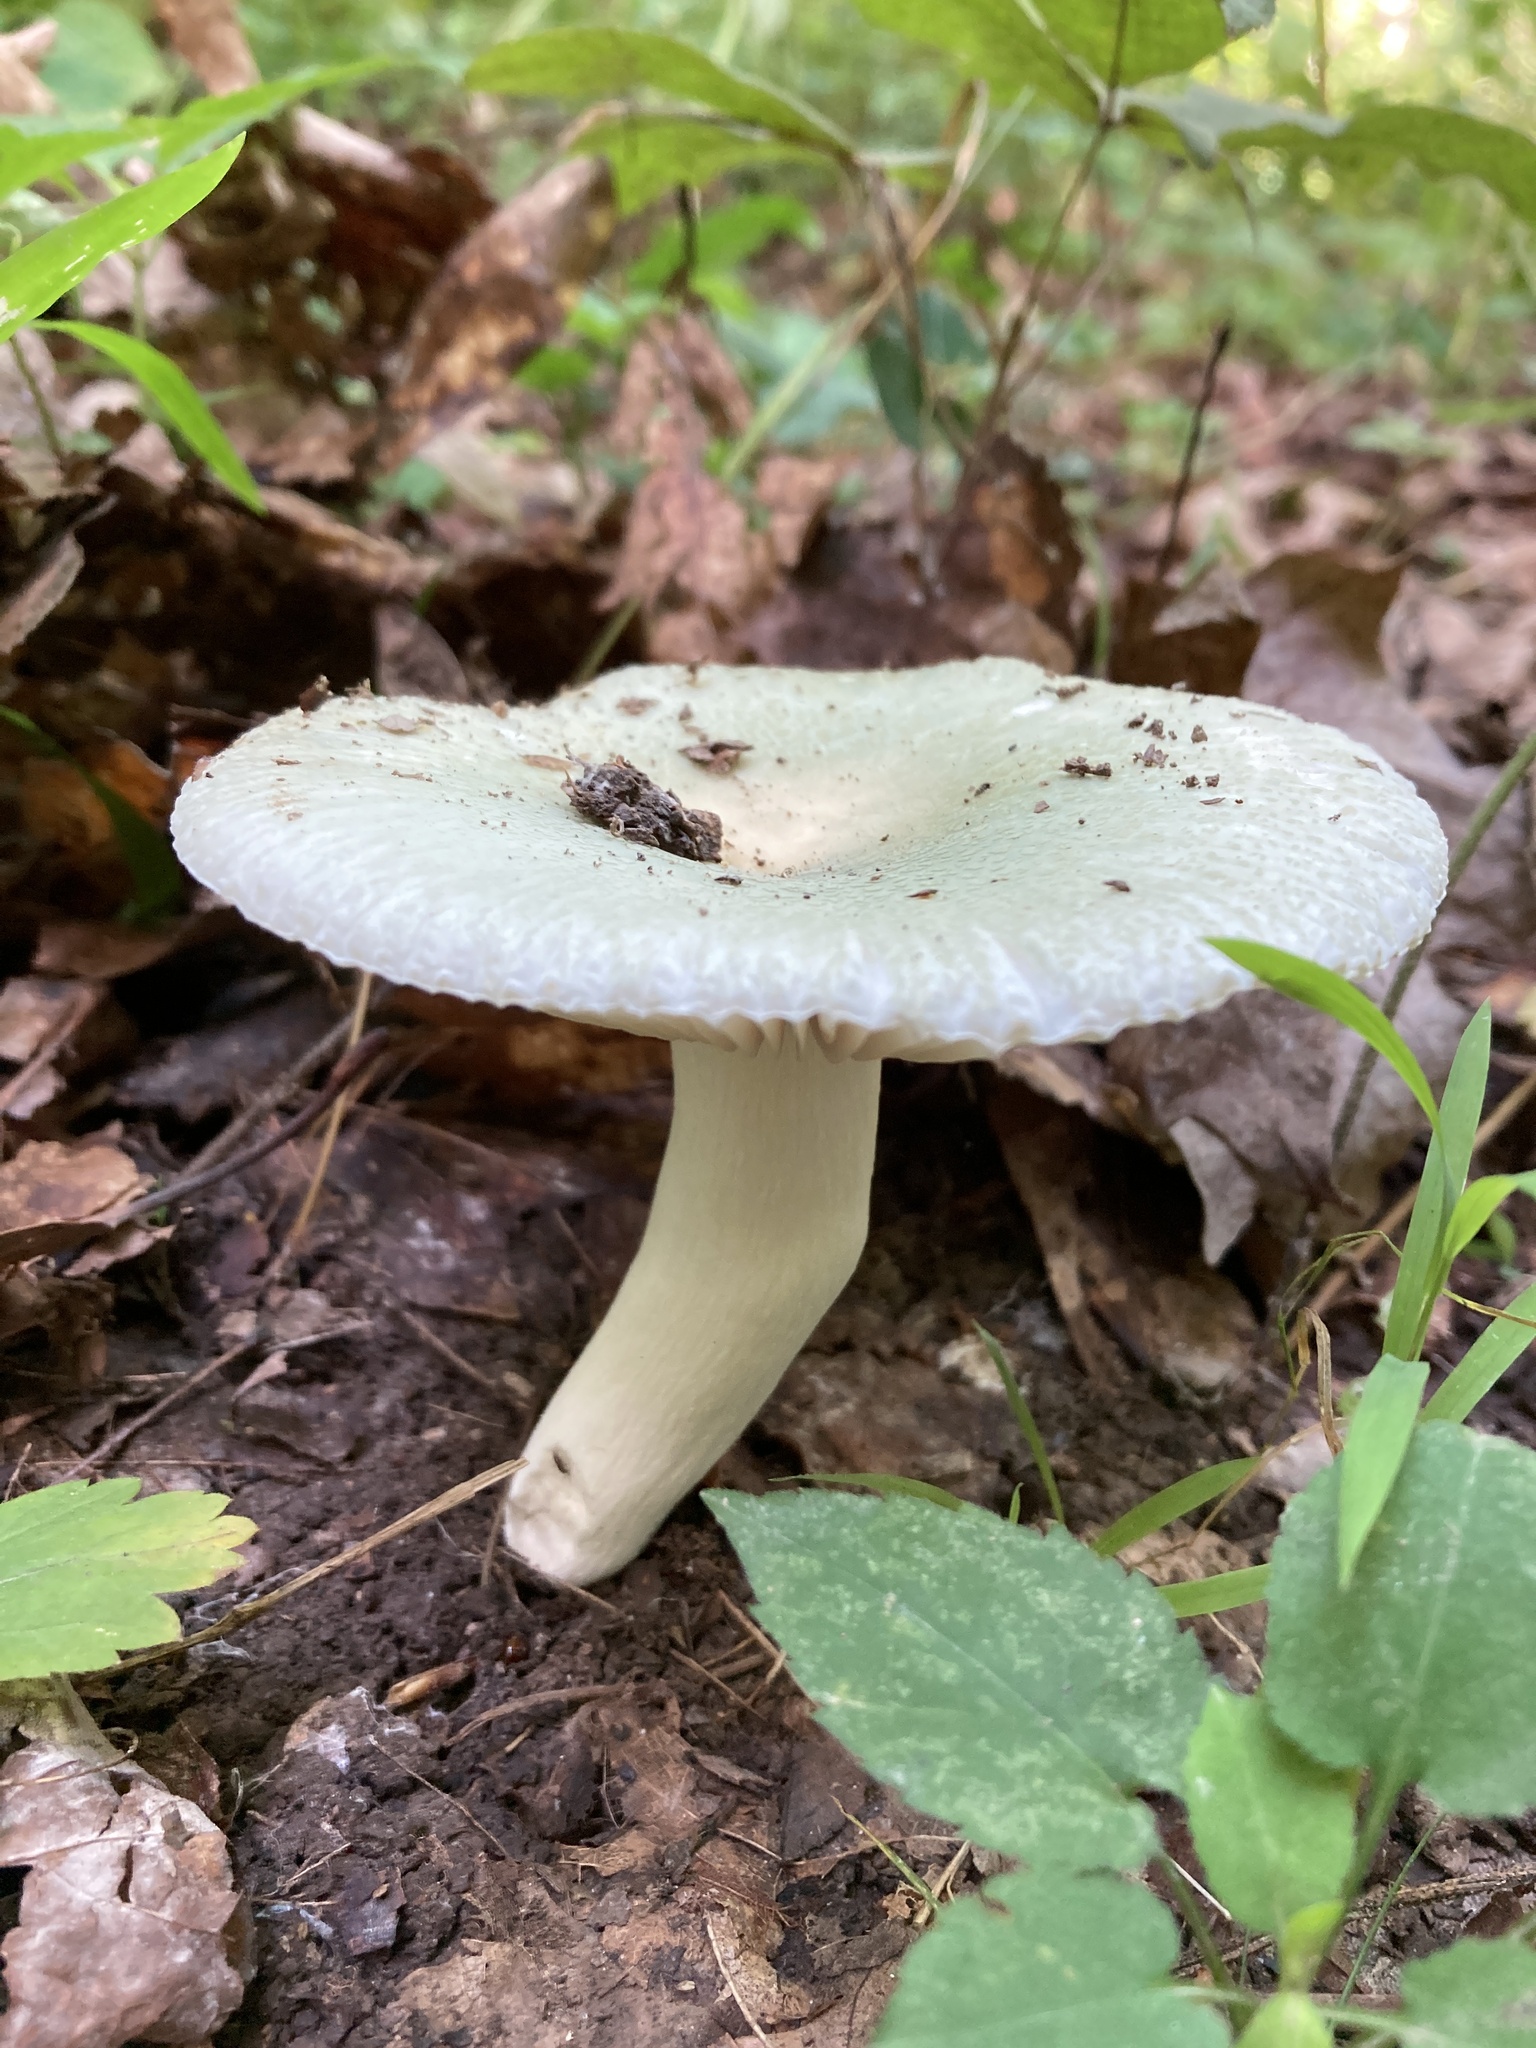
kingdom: Fungi
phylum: Basidiomycota
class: Agaricomycetes
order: Russulales
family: Russulaceae
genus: Lactarius
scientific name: Lactarius indigo
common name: Indigo milk cap
